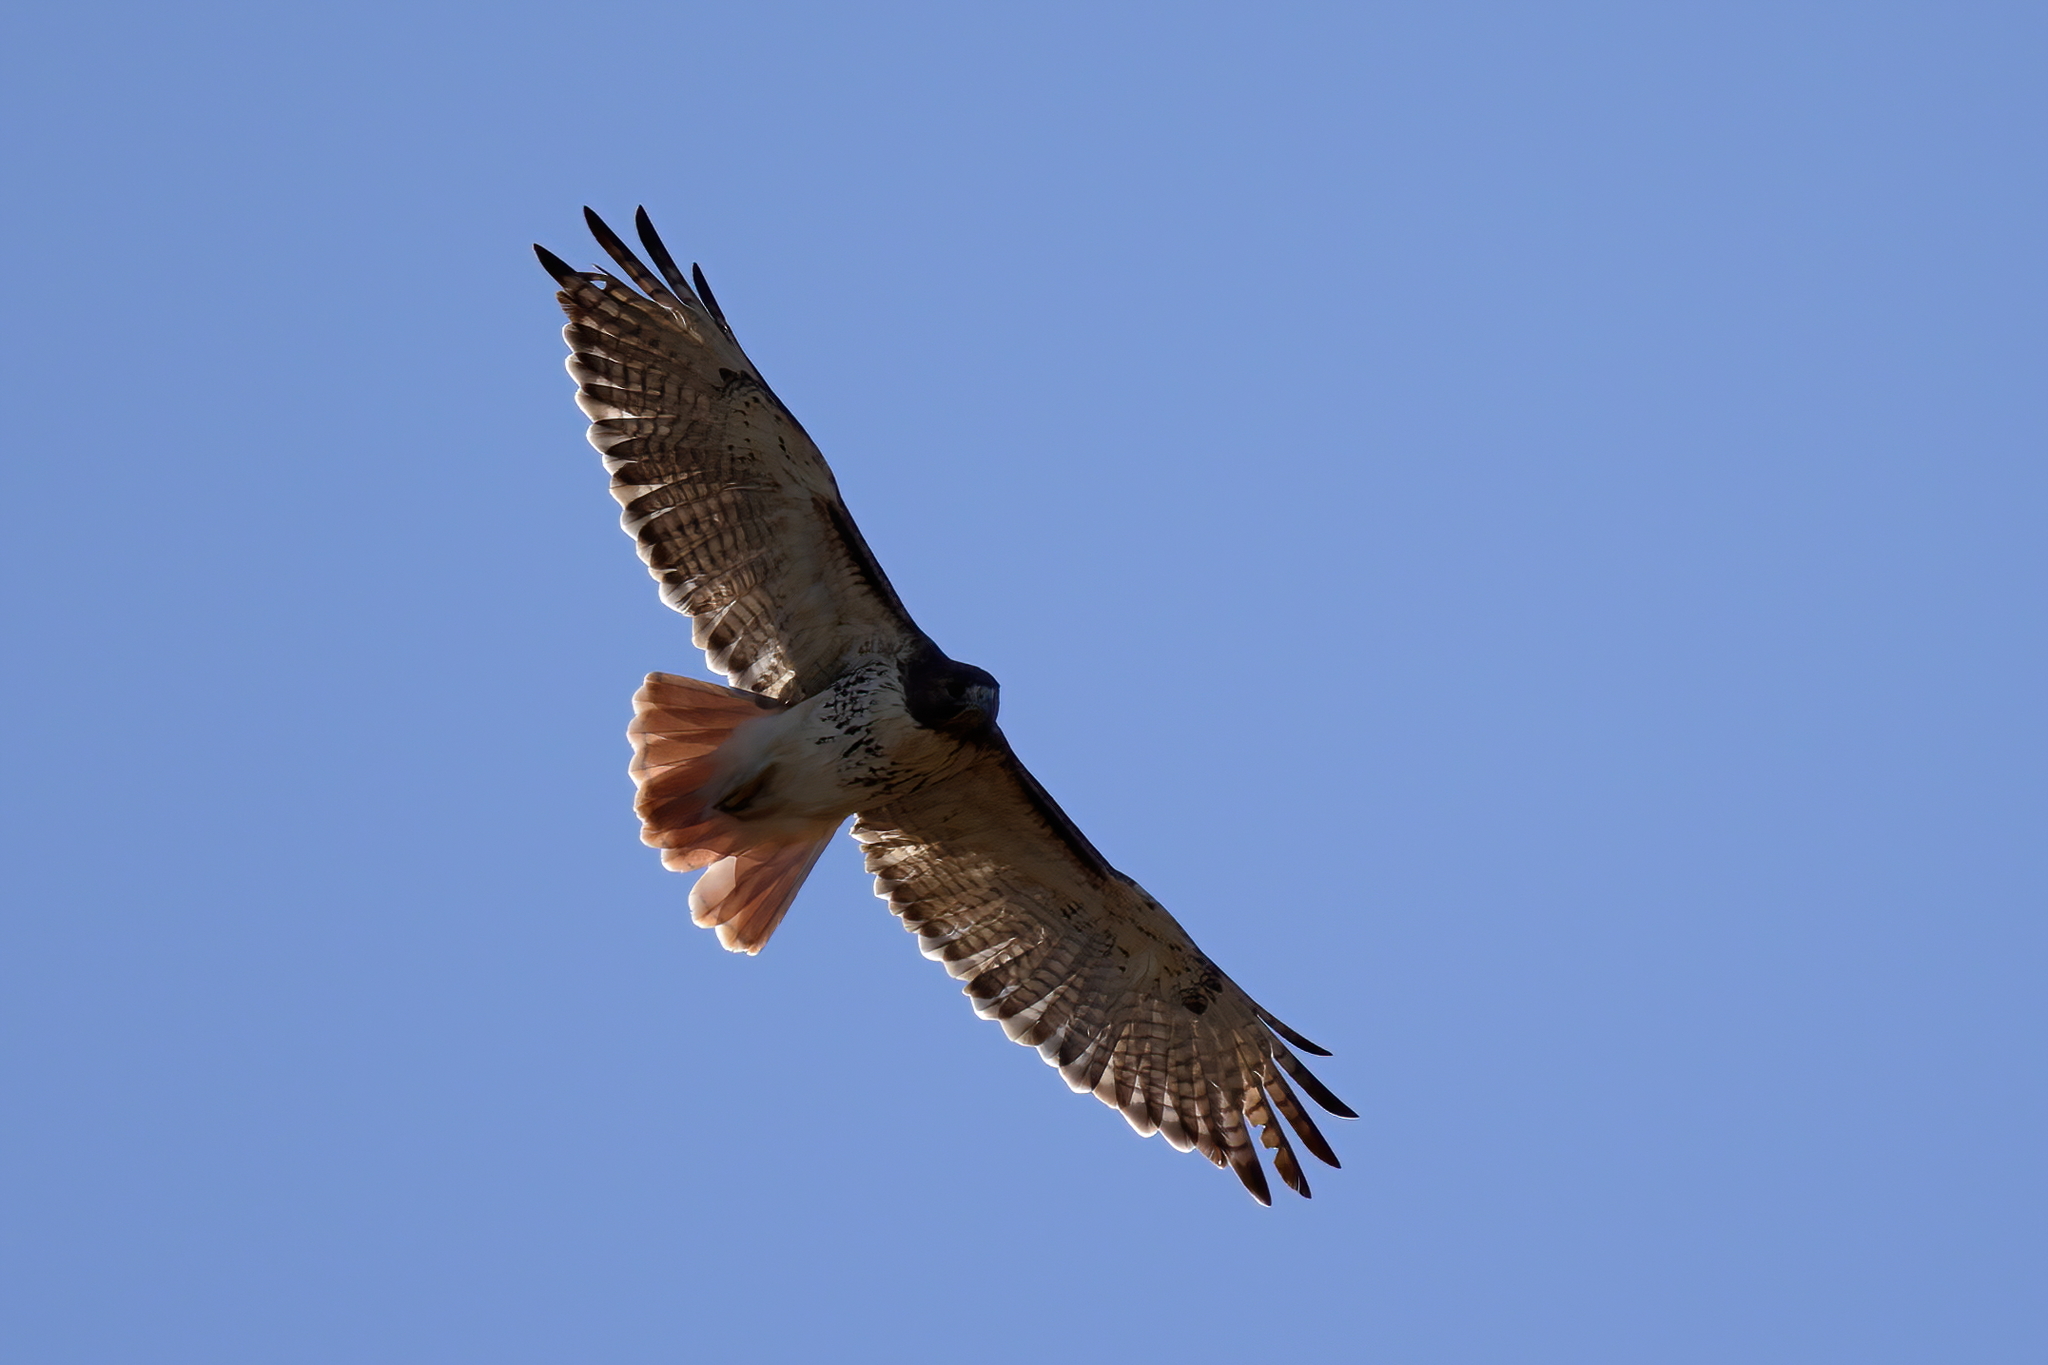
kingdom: Animalia
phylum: Chordata
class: Aves
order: Accipitriformes
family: Accipitridae
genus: Buteo
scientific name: Buteo jamaicensis
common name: Red-tailed hawk
